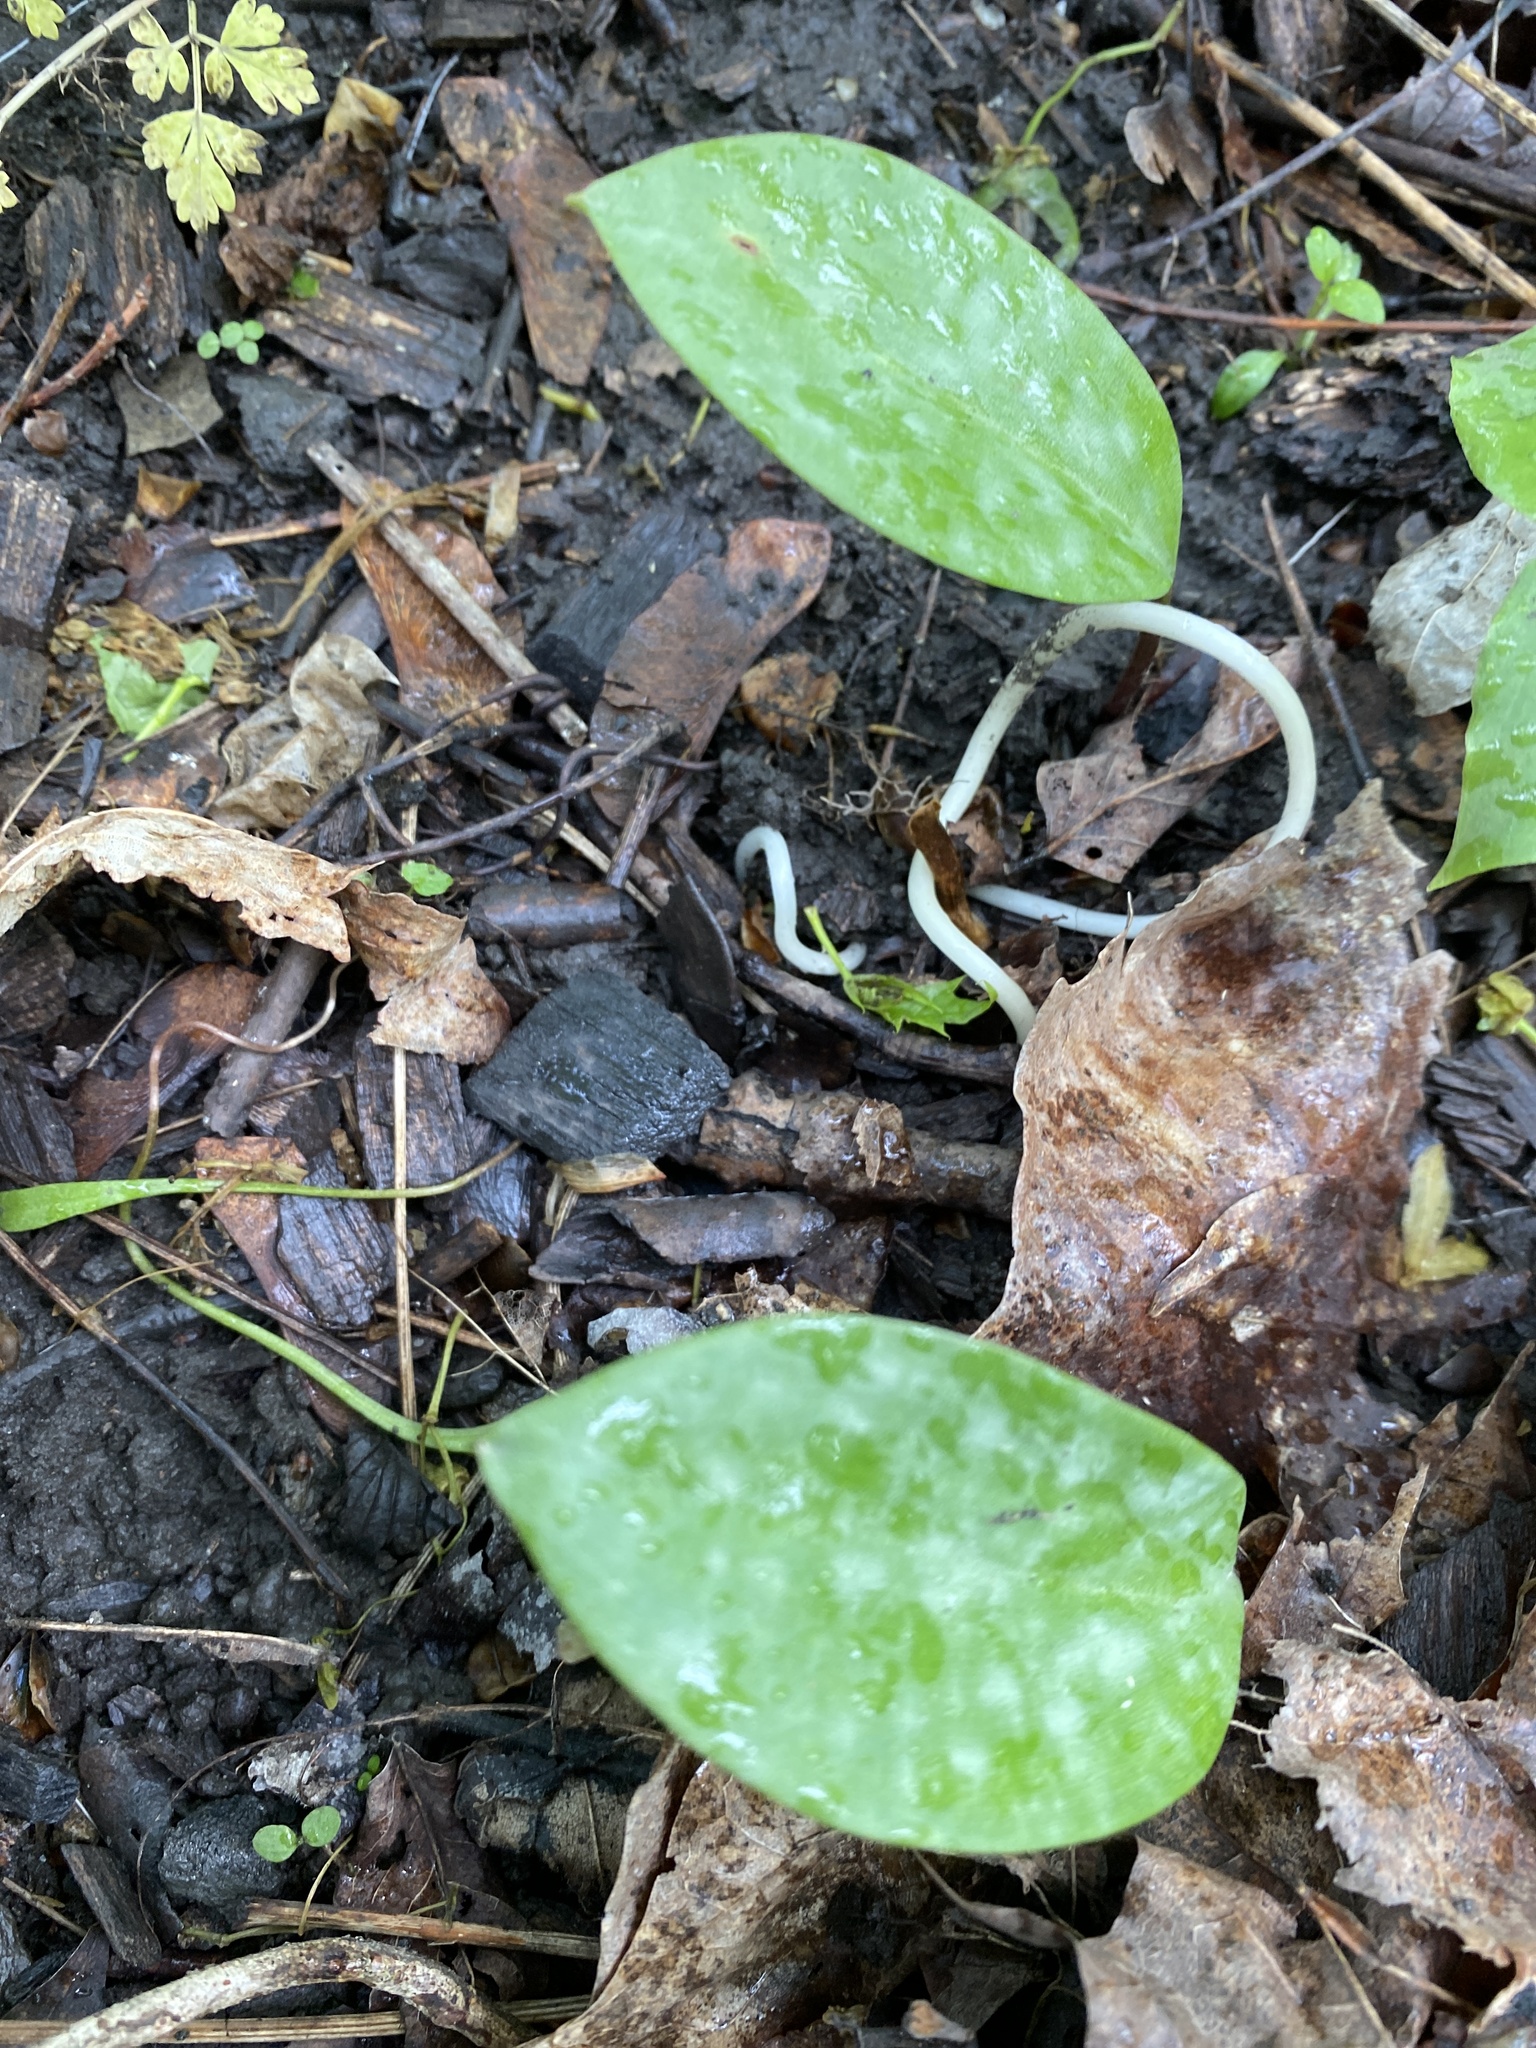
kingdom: Plantae
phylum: Tracheophyta
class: Liliopsida
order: Liliales
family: Liliaceae
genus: Erythronium
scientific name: Erythronium americanum
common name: Yellow adder's-tongue
